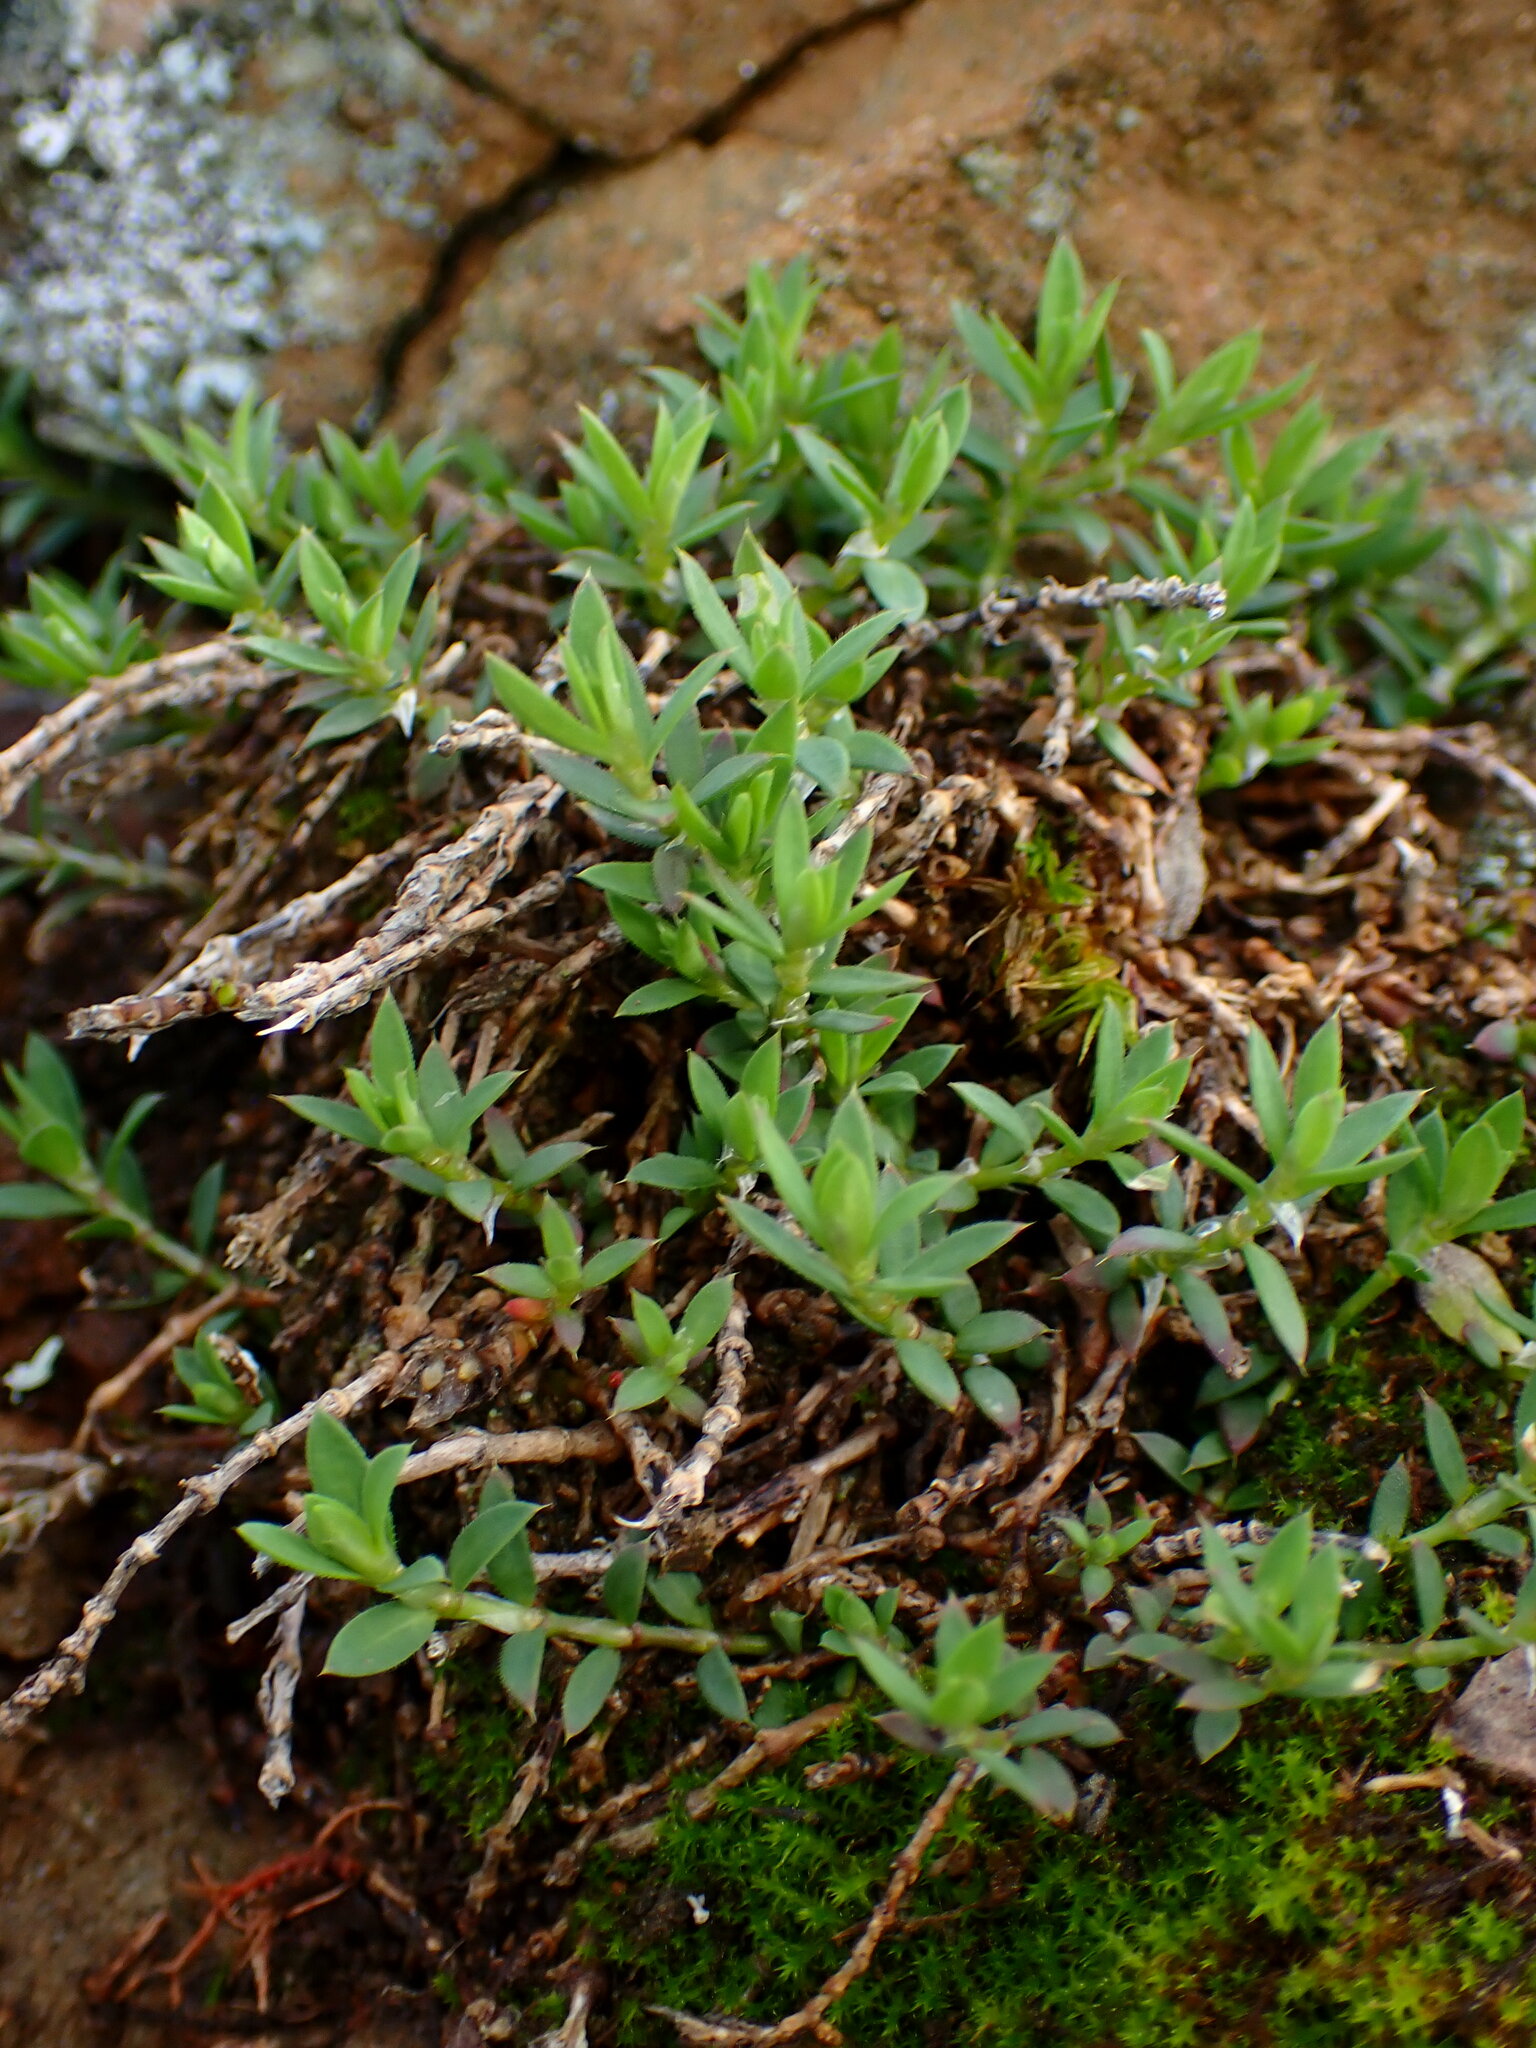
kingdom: Plantae
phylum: Tracheophyta
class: Magnoliopsida
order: Caryophyllales
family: Caryophyllaceae
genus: Paronychia
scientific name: Paronychia franciscana
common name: San francisco nailwort
